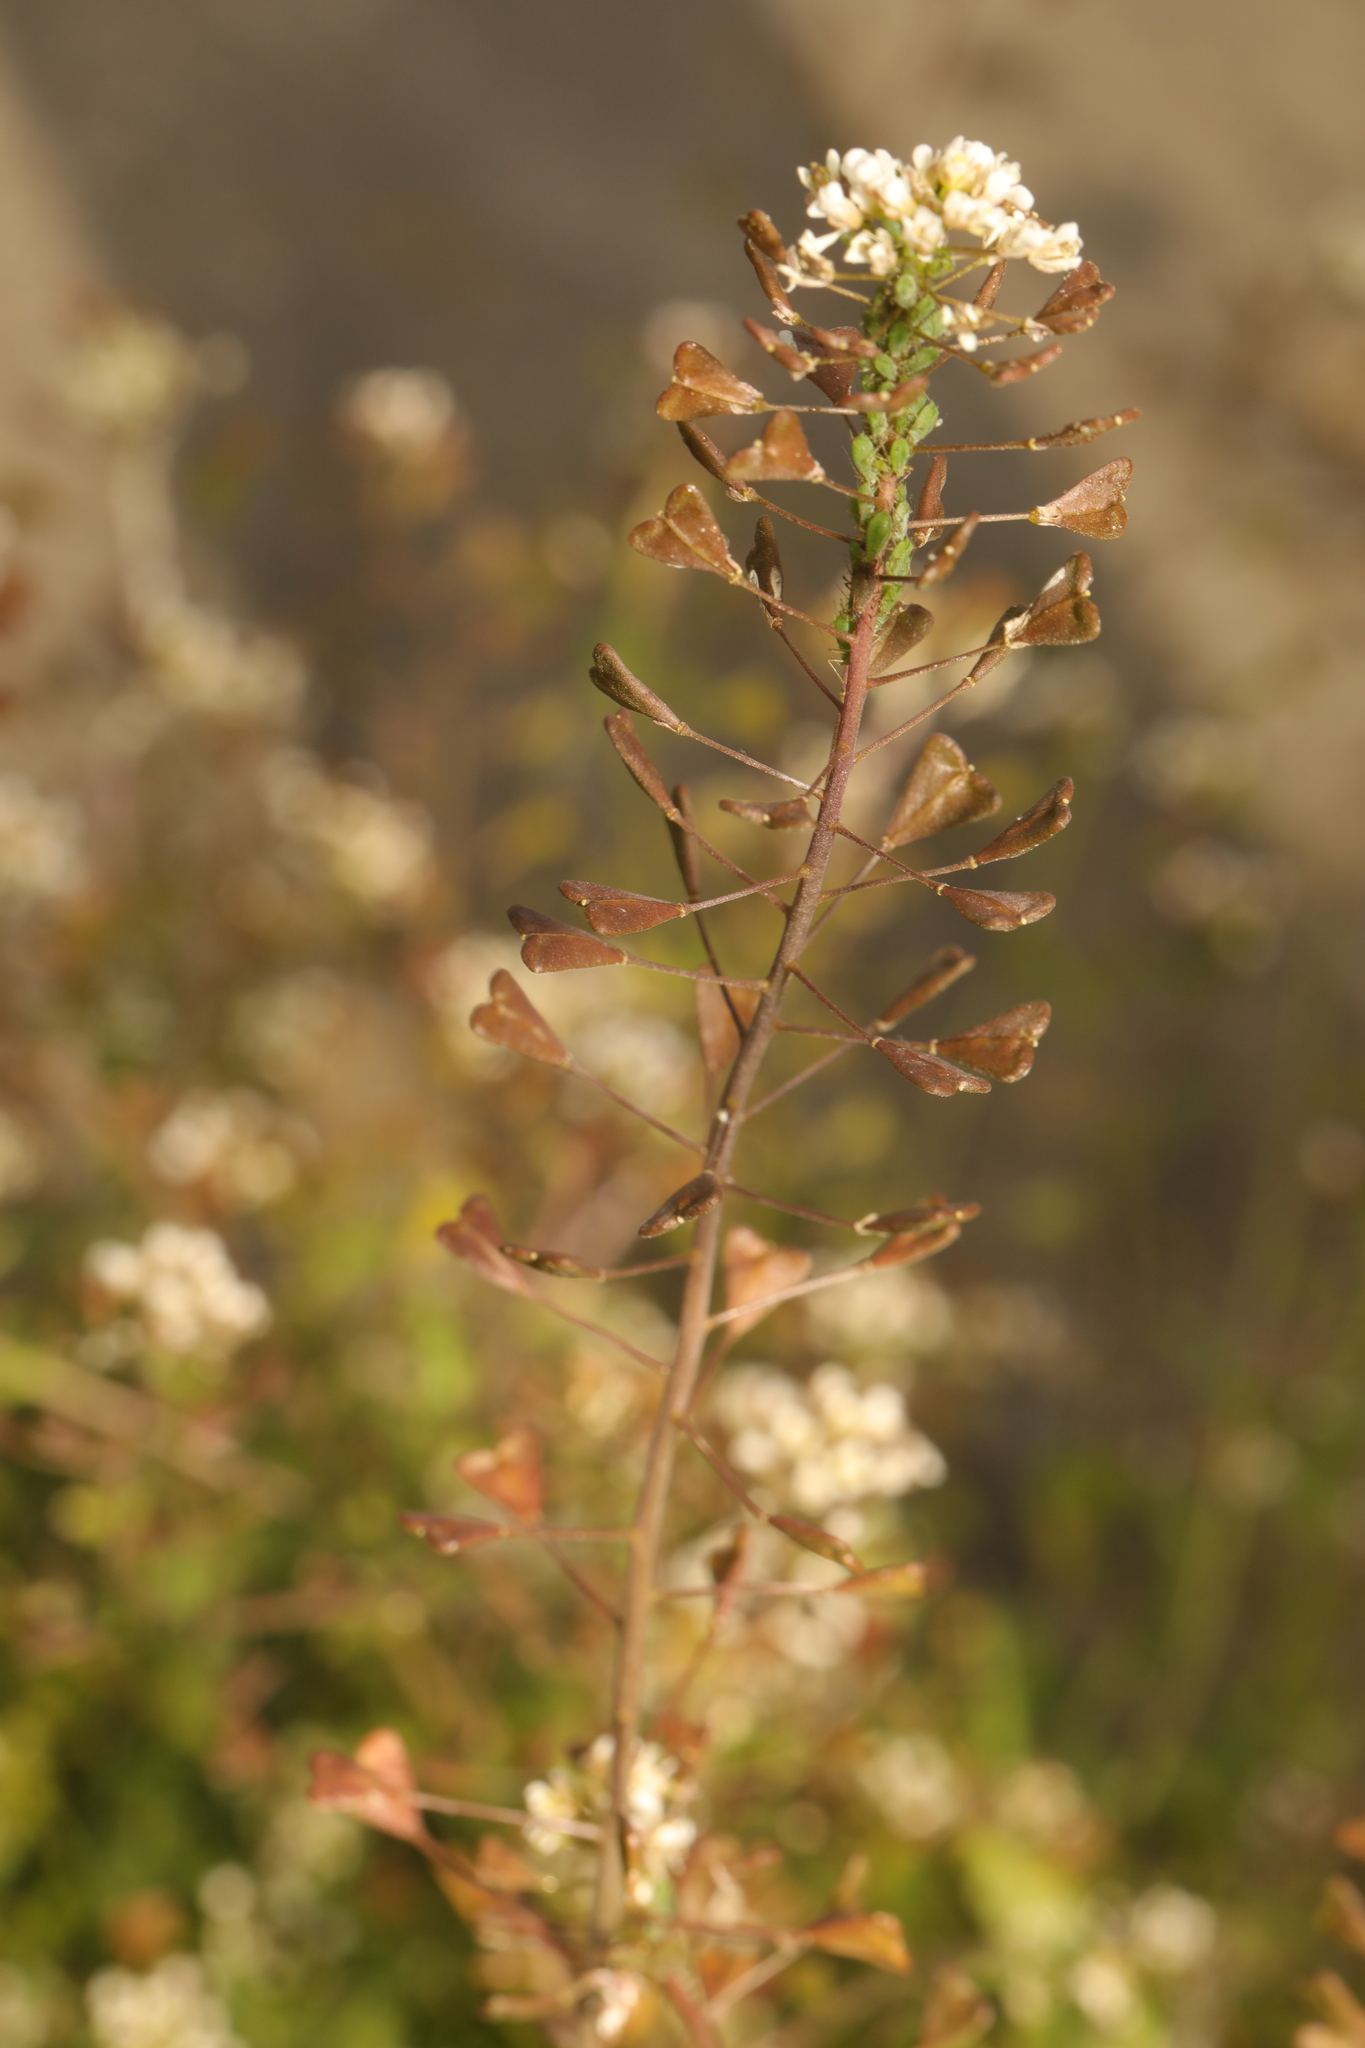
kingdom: Plantae
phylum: Tracheophyta
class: Magnoliopsida
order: Brassicales
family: Brassicaceae
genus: Capsella
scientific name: Capsella bursa-pastoris
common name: Shepherd's purse
